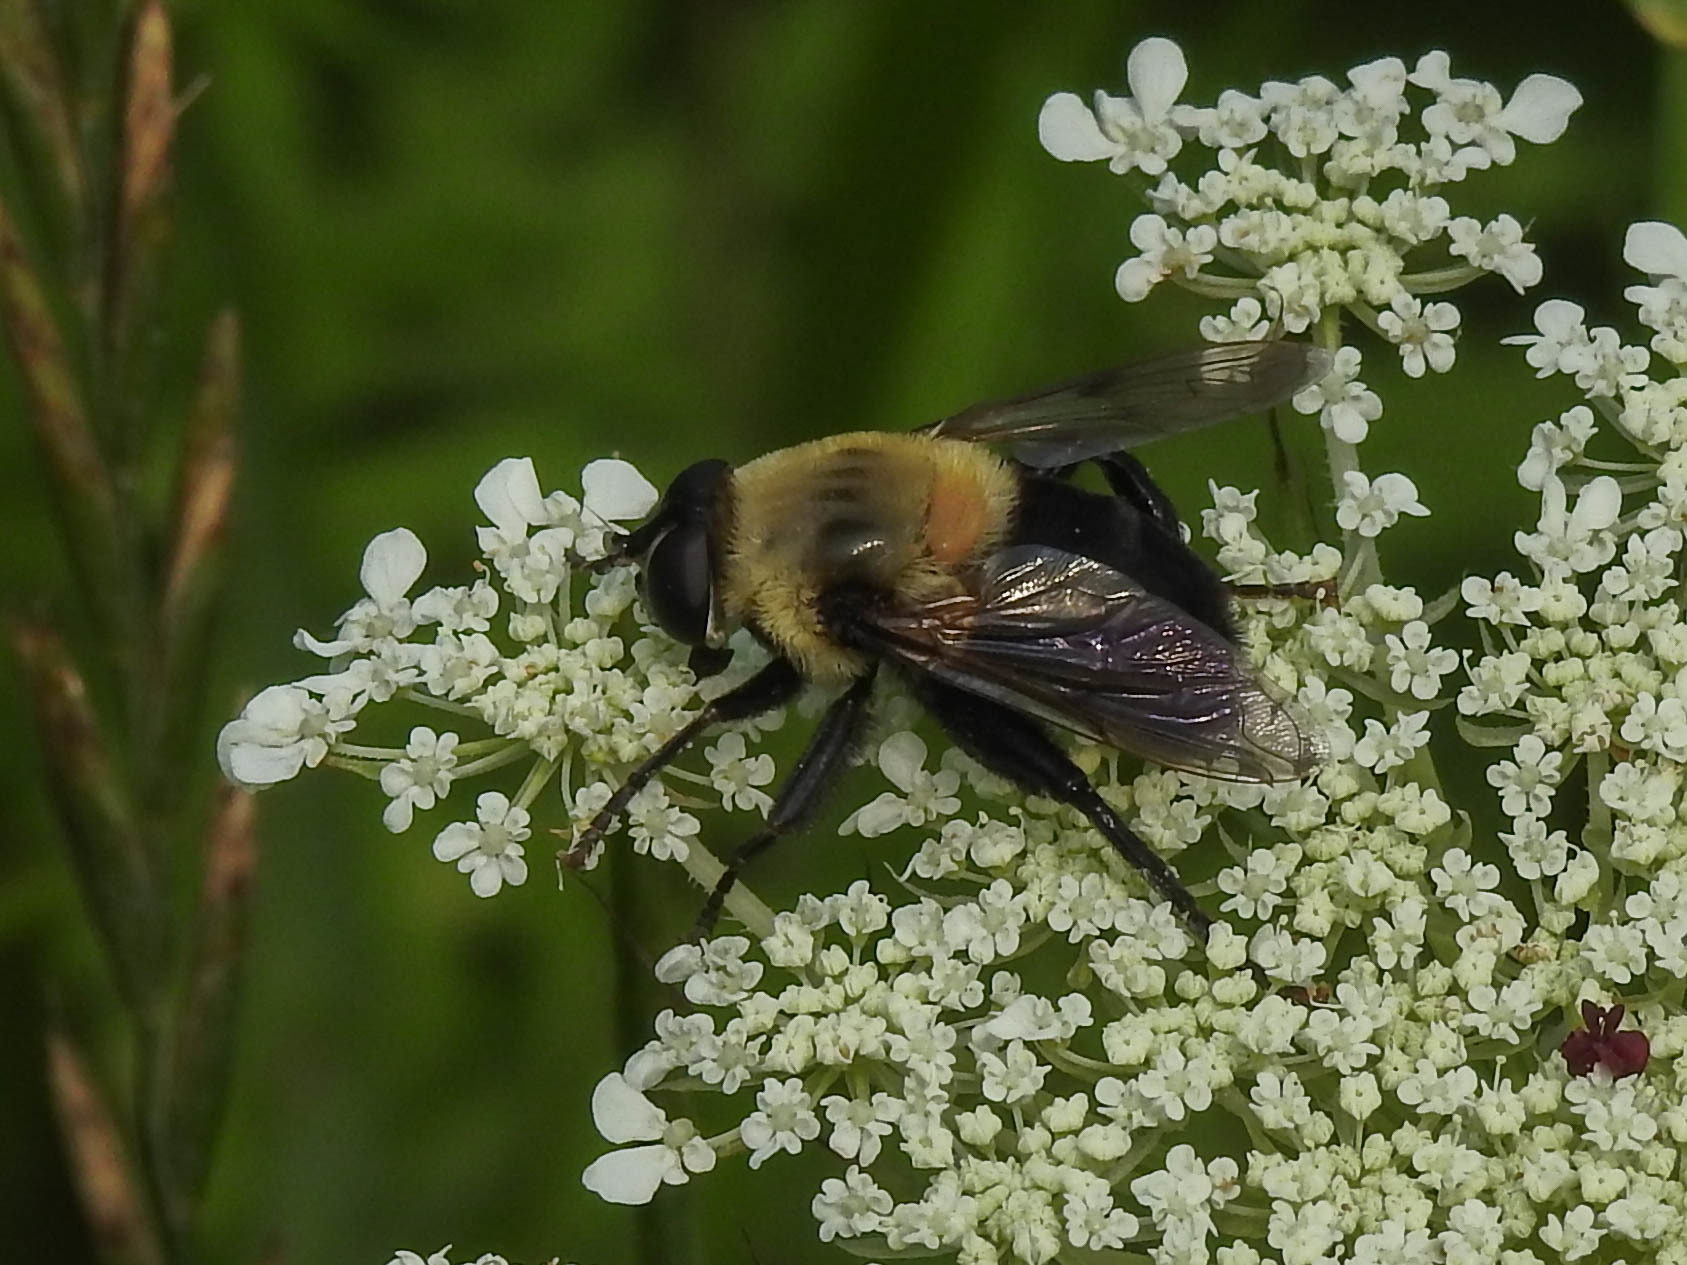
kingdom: Animalia
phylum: Arthropoda
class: Insecta
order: Diptera
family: Syrphidae
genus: Imatisma
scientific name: Imatisma bautias
